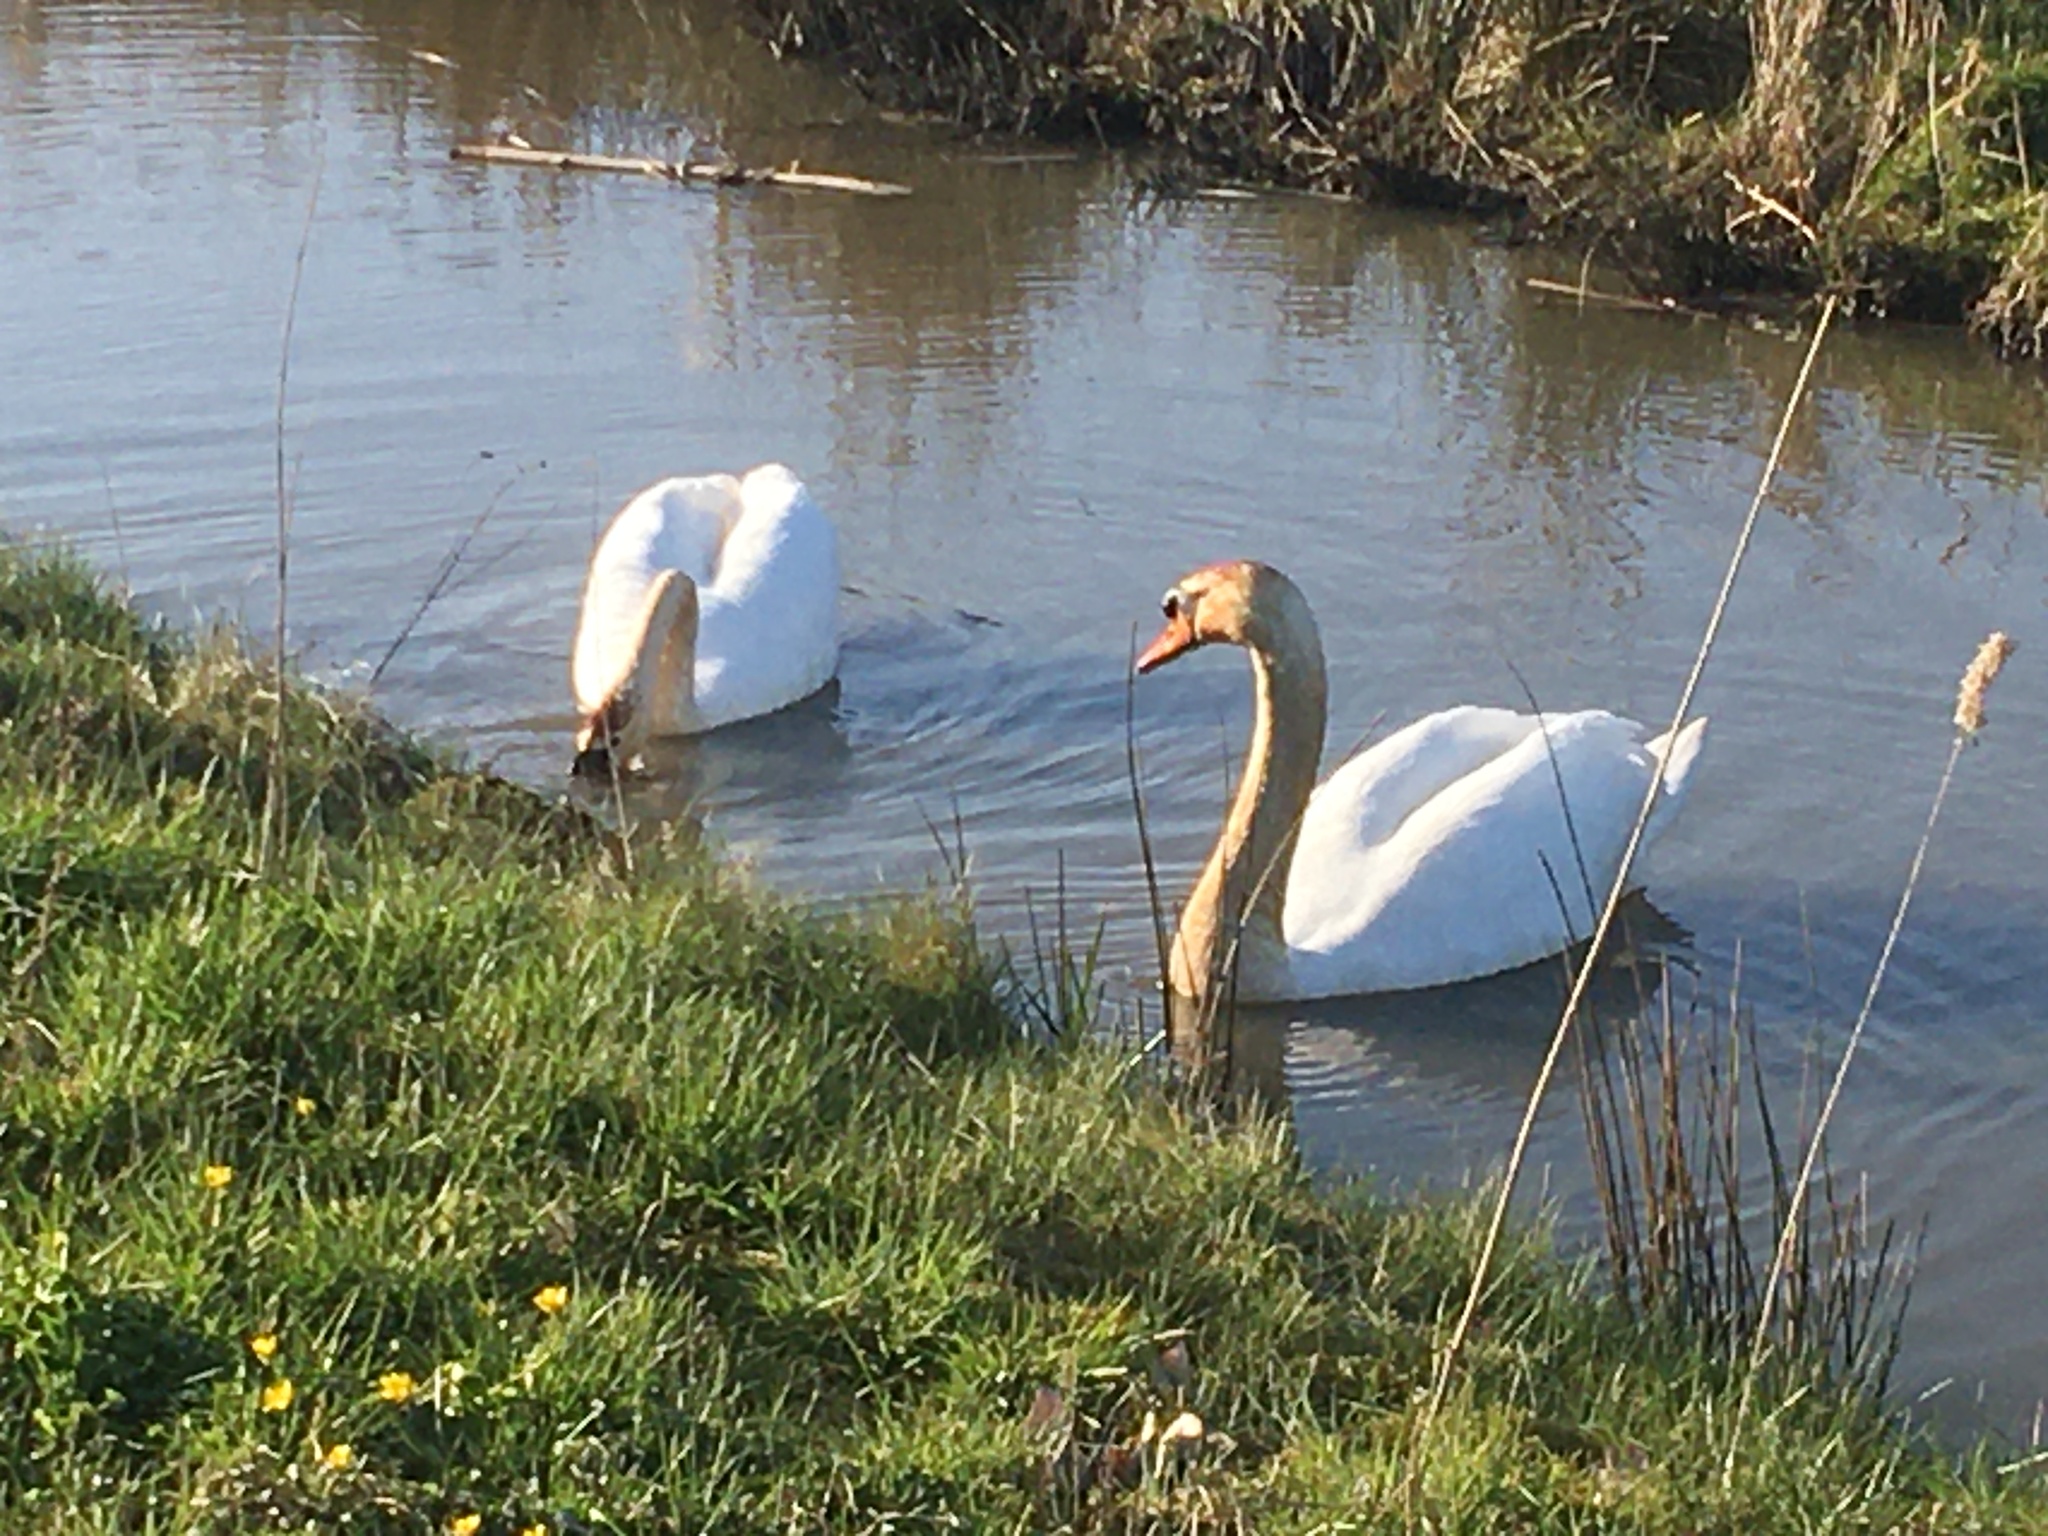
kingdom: Animalia
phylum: Chordata
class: Aves
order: Anseriformes
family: Anatidae
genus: Cygnus
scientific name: Cygnus olor
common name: Mute swan
